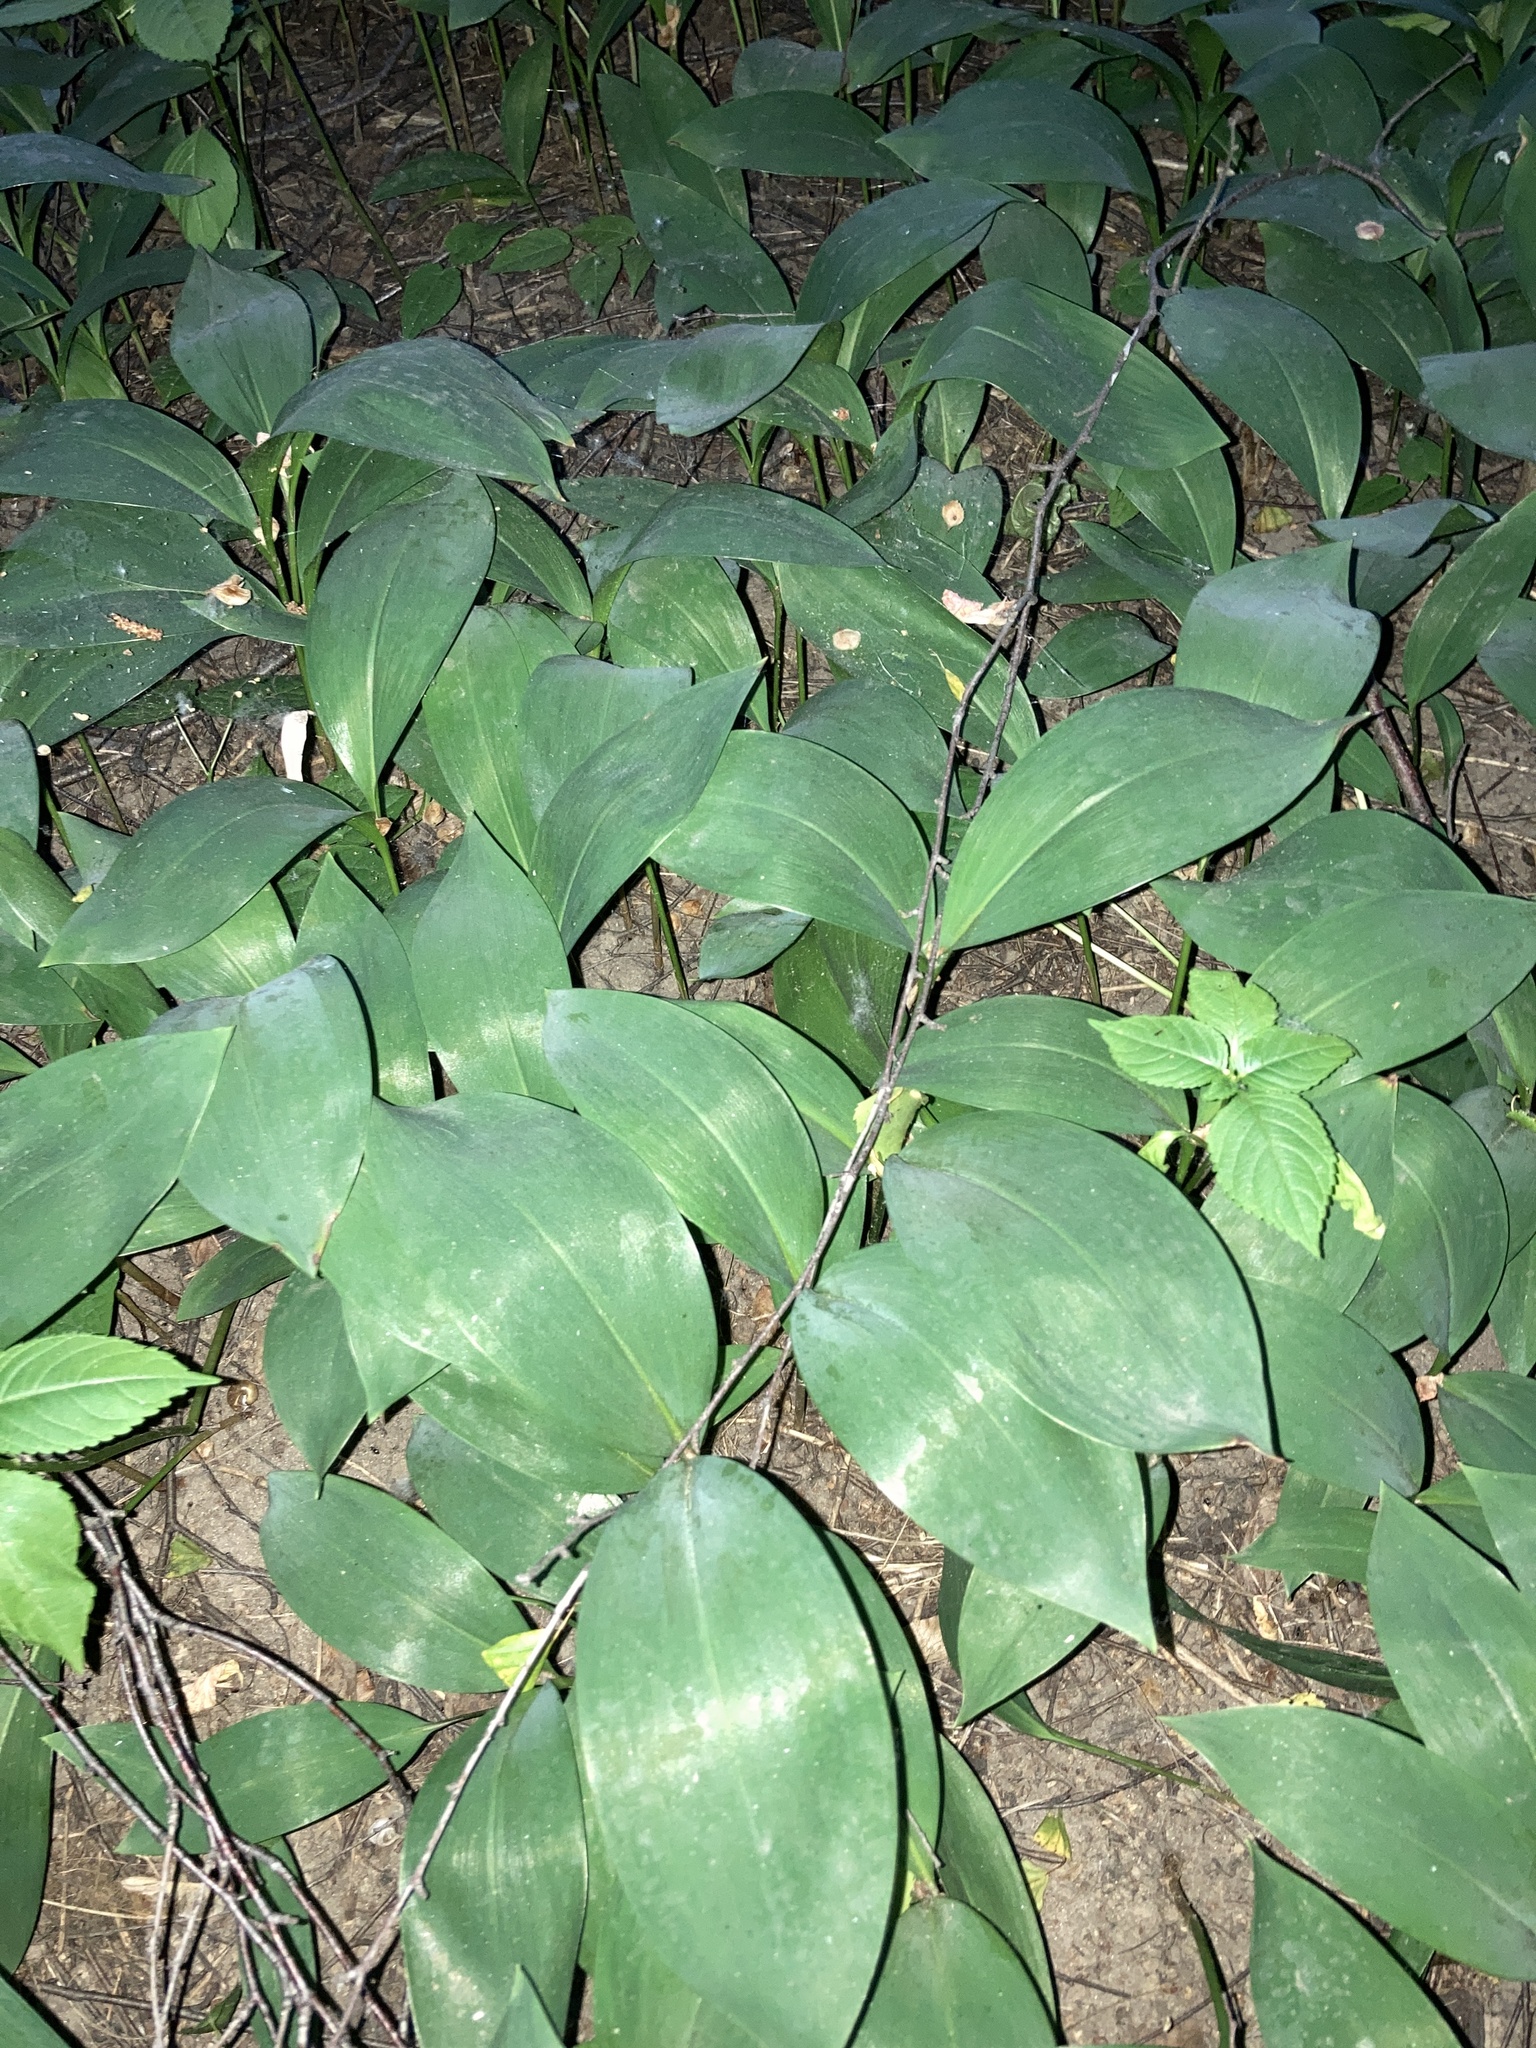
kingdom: Plantae
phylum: Tracheophyta
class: Liliopsida
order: Asparagales
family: Asparagaceae
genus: Convallaria
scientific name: Convallaria majalis
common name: Lily-of-the-valley
